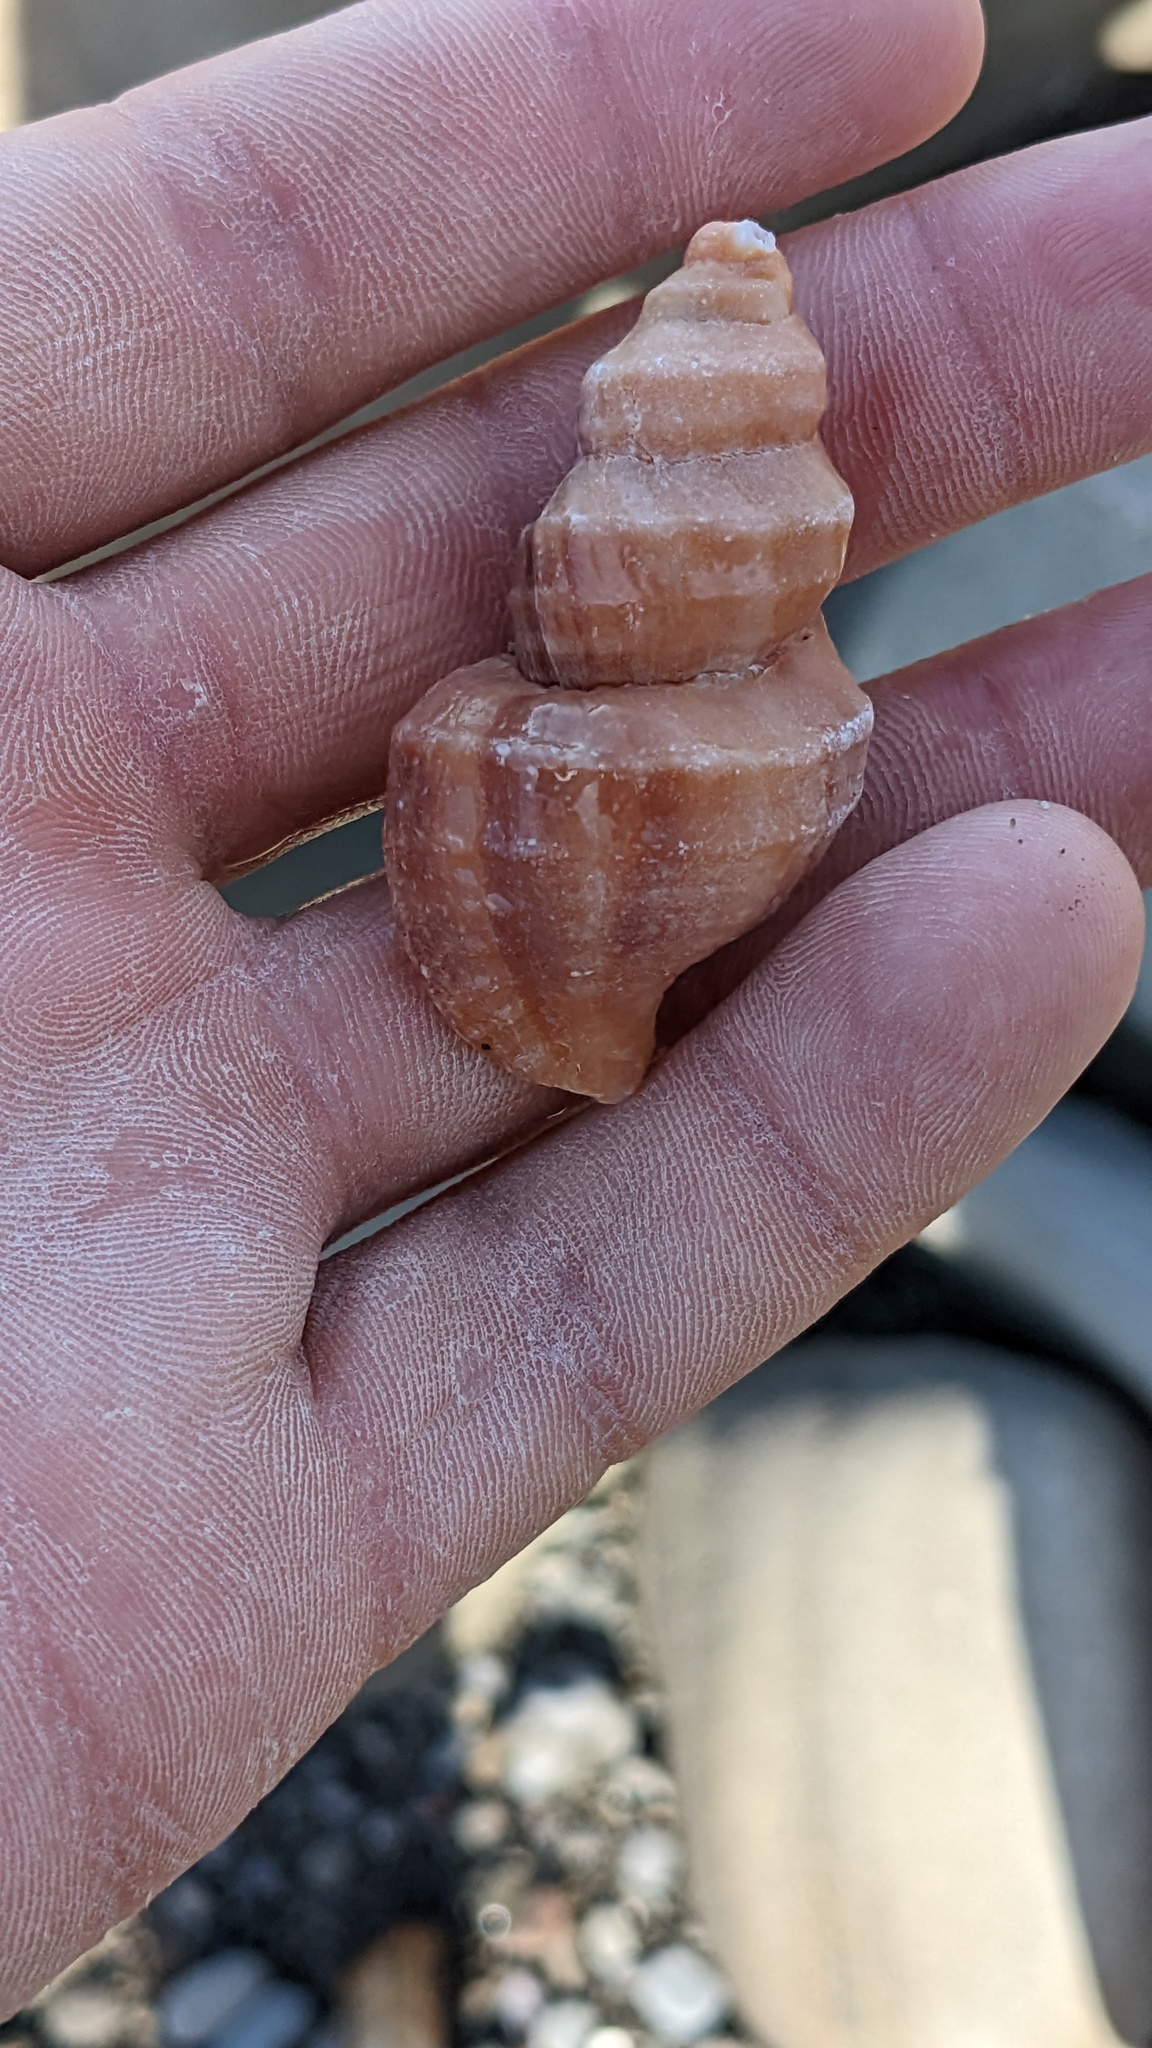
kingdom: Animalia
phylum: Mollusca
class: Gastropoda
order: Neogastropoda
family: Muricidae
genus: Nucella
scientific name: Nucella lamellosa
